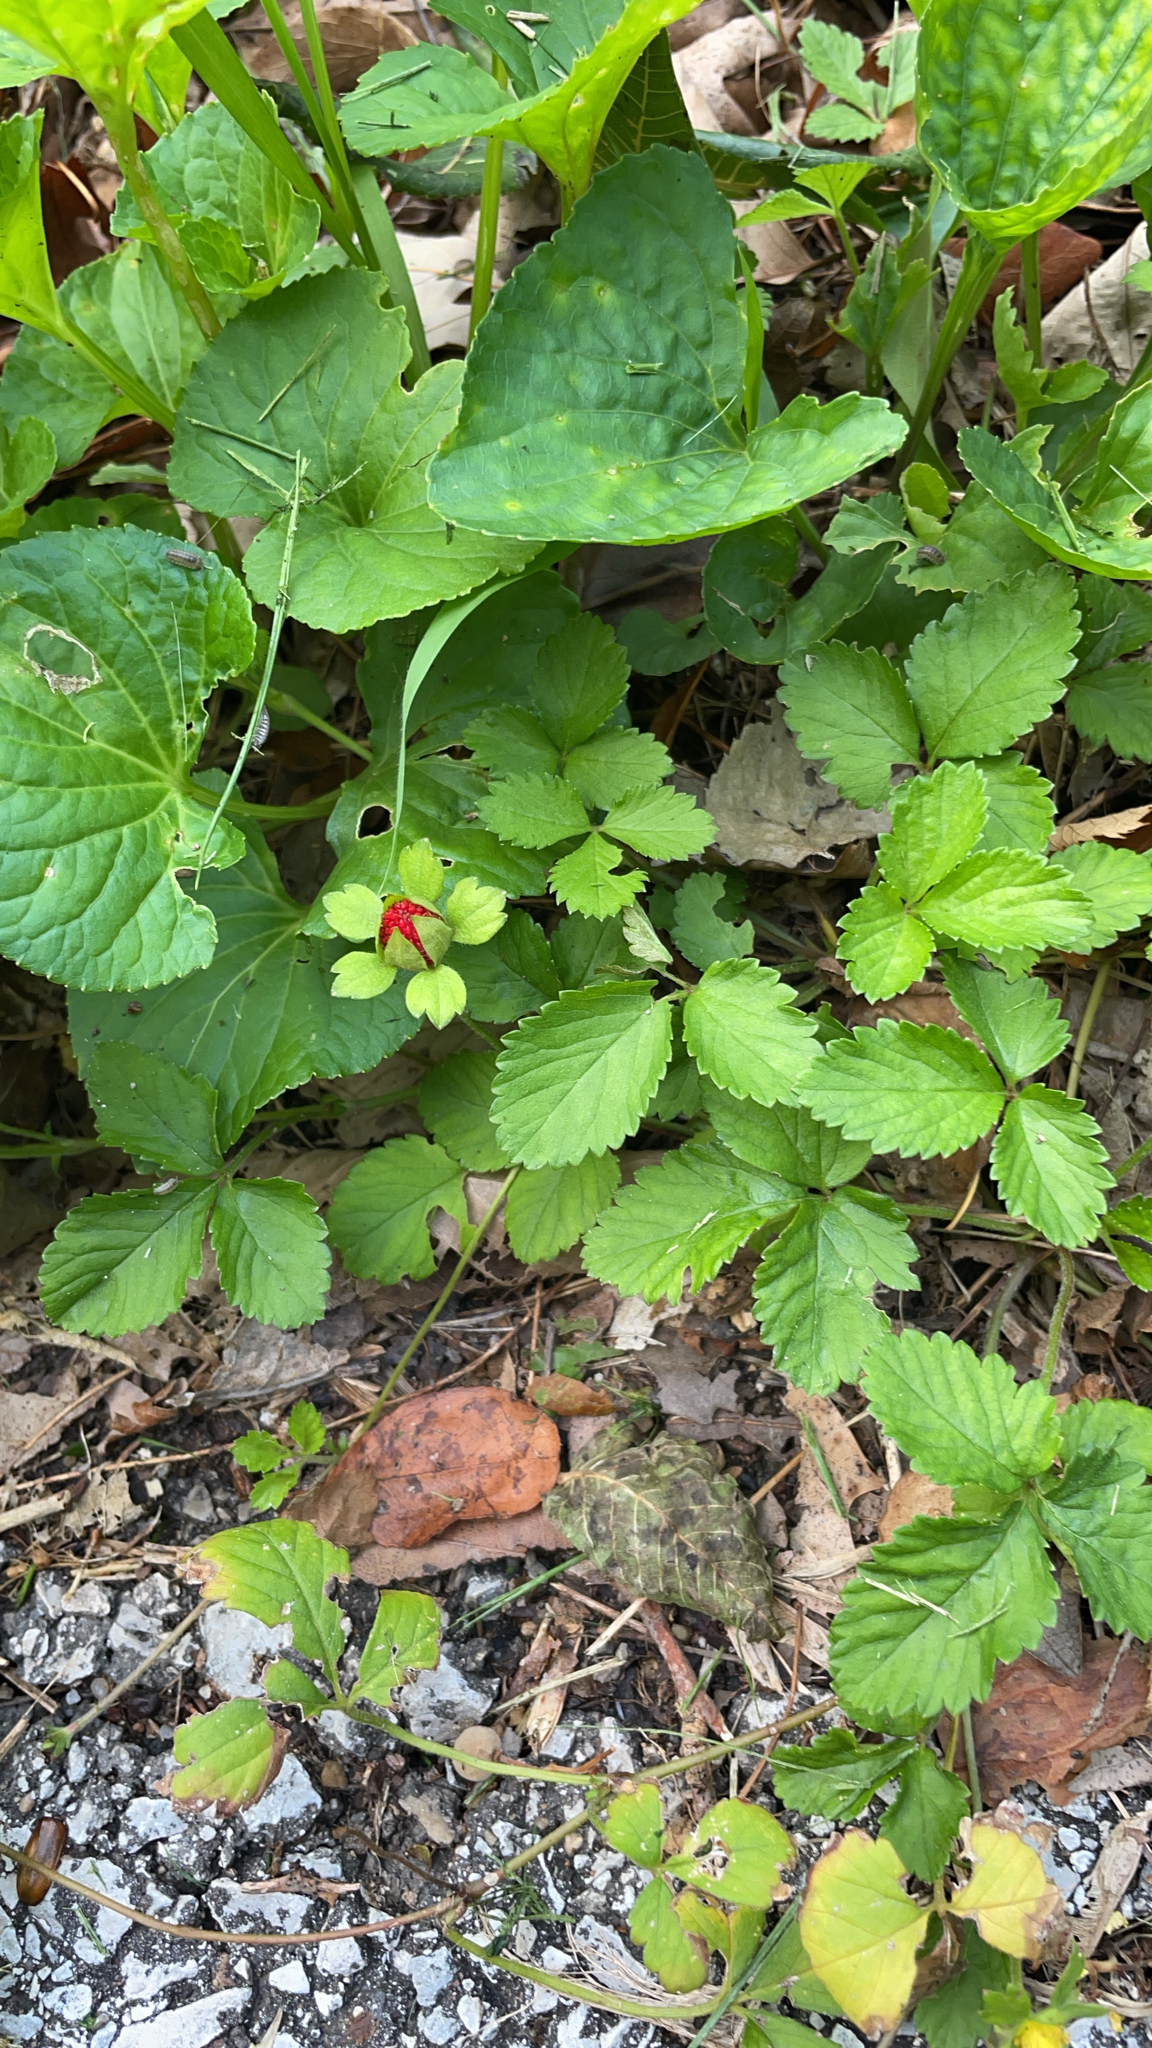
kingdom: Plantae
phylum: Tracheophyta
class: Magnoliopsida
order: Rosales
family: Rosaceae
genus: Potentilla
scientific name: Potentilla indica
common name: Yellow-flowered strawberry
